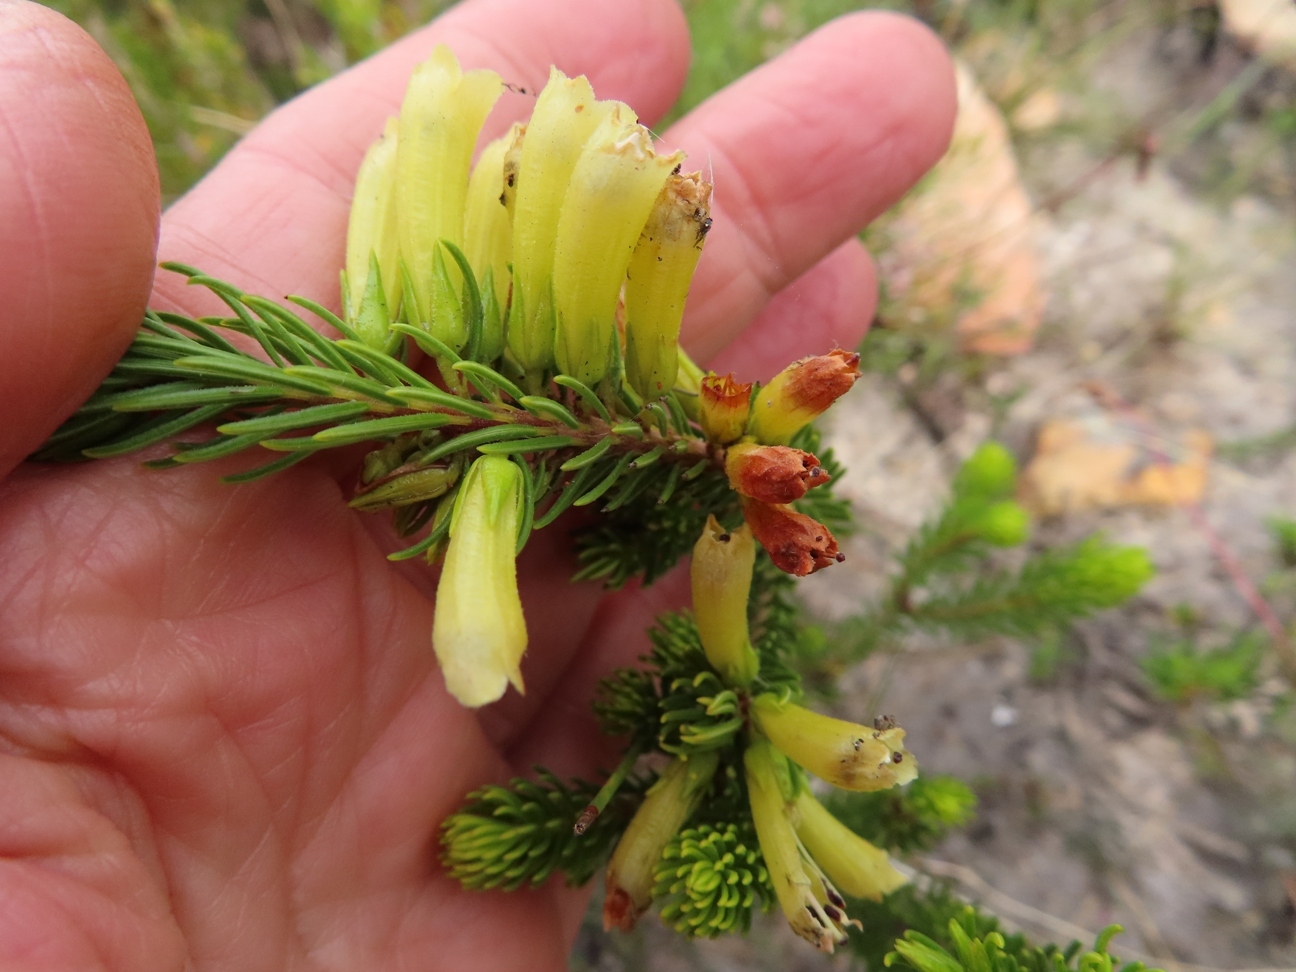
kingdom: Plantae
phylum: Tracheophyta
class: Magnoliopsida
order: Ericales
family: Ericaceae
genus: Erica
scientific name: Erica viscaria
